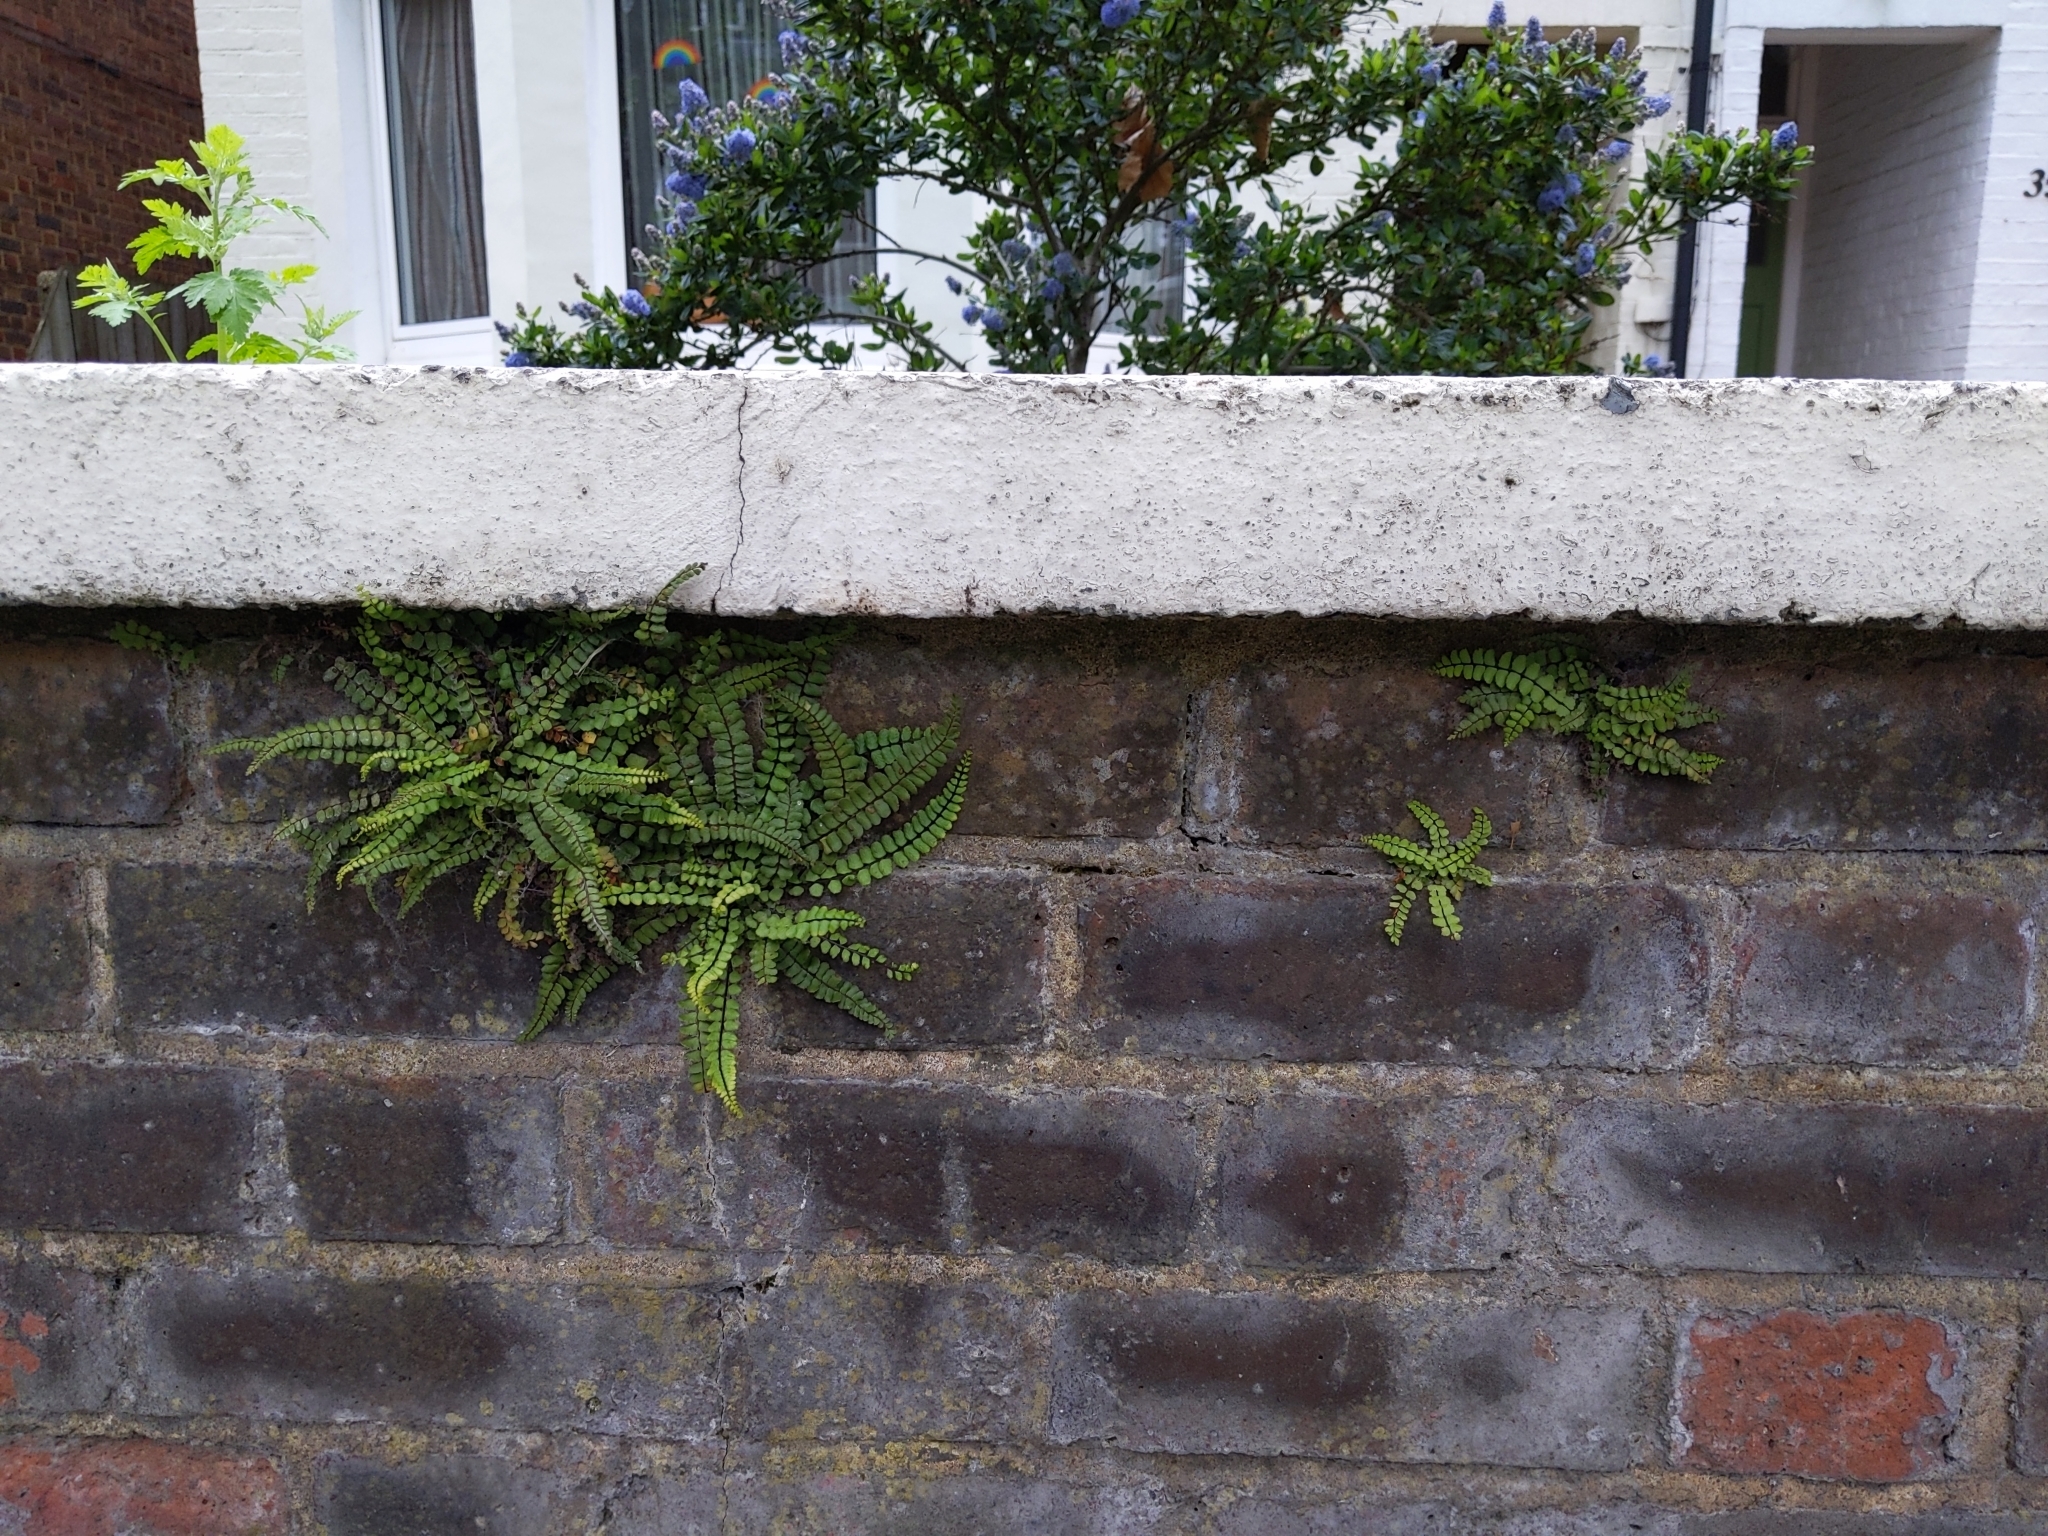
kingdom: Plantae
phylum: Tracheophyta
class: Polypodiopsida
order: Polypodiales
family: Aspleniaceae
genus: Asplenium
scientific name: Asplenium trichomanes
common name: Maidenhair spleenwort
